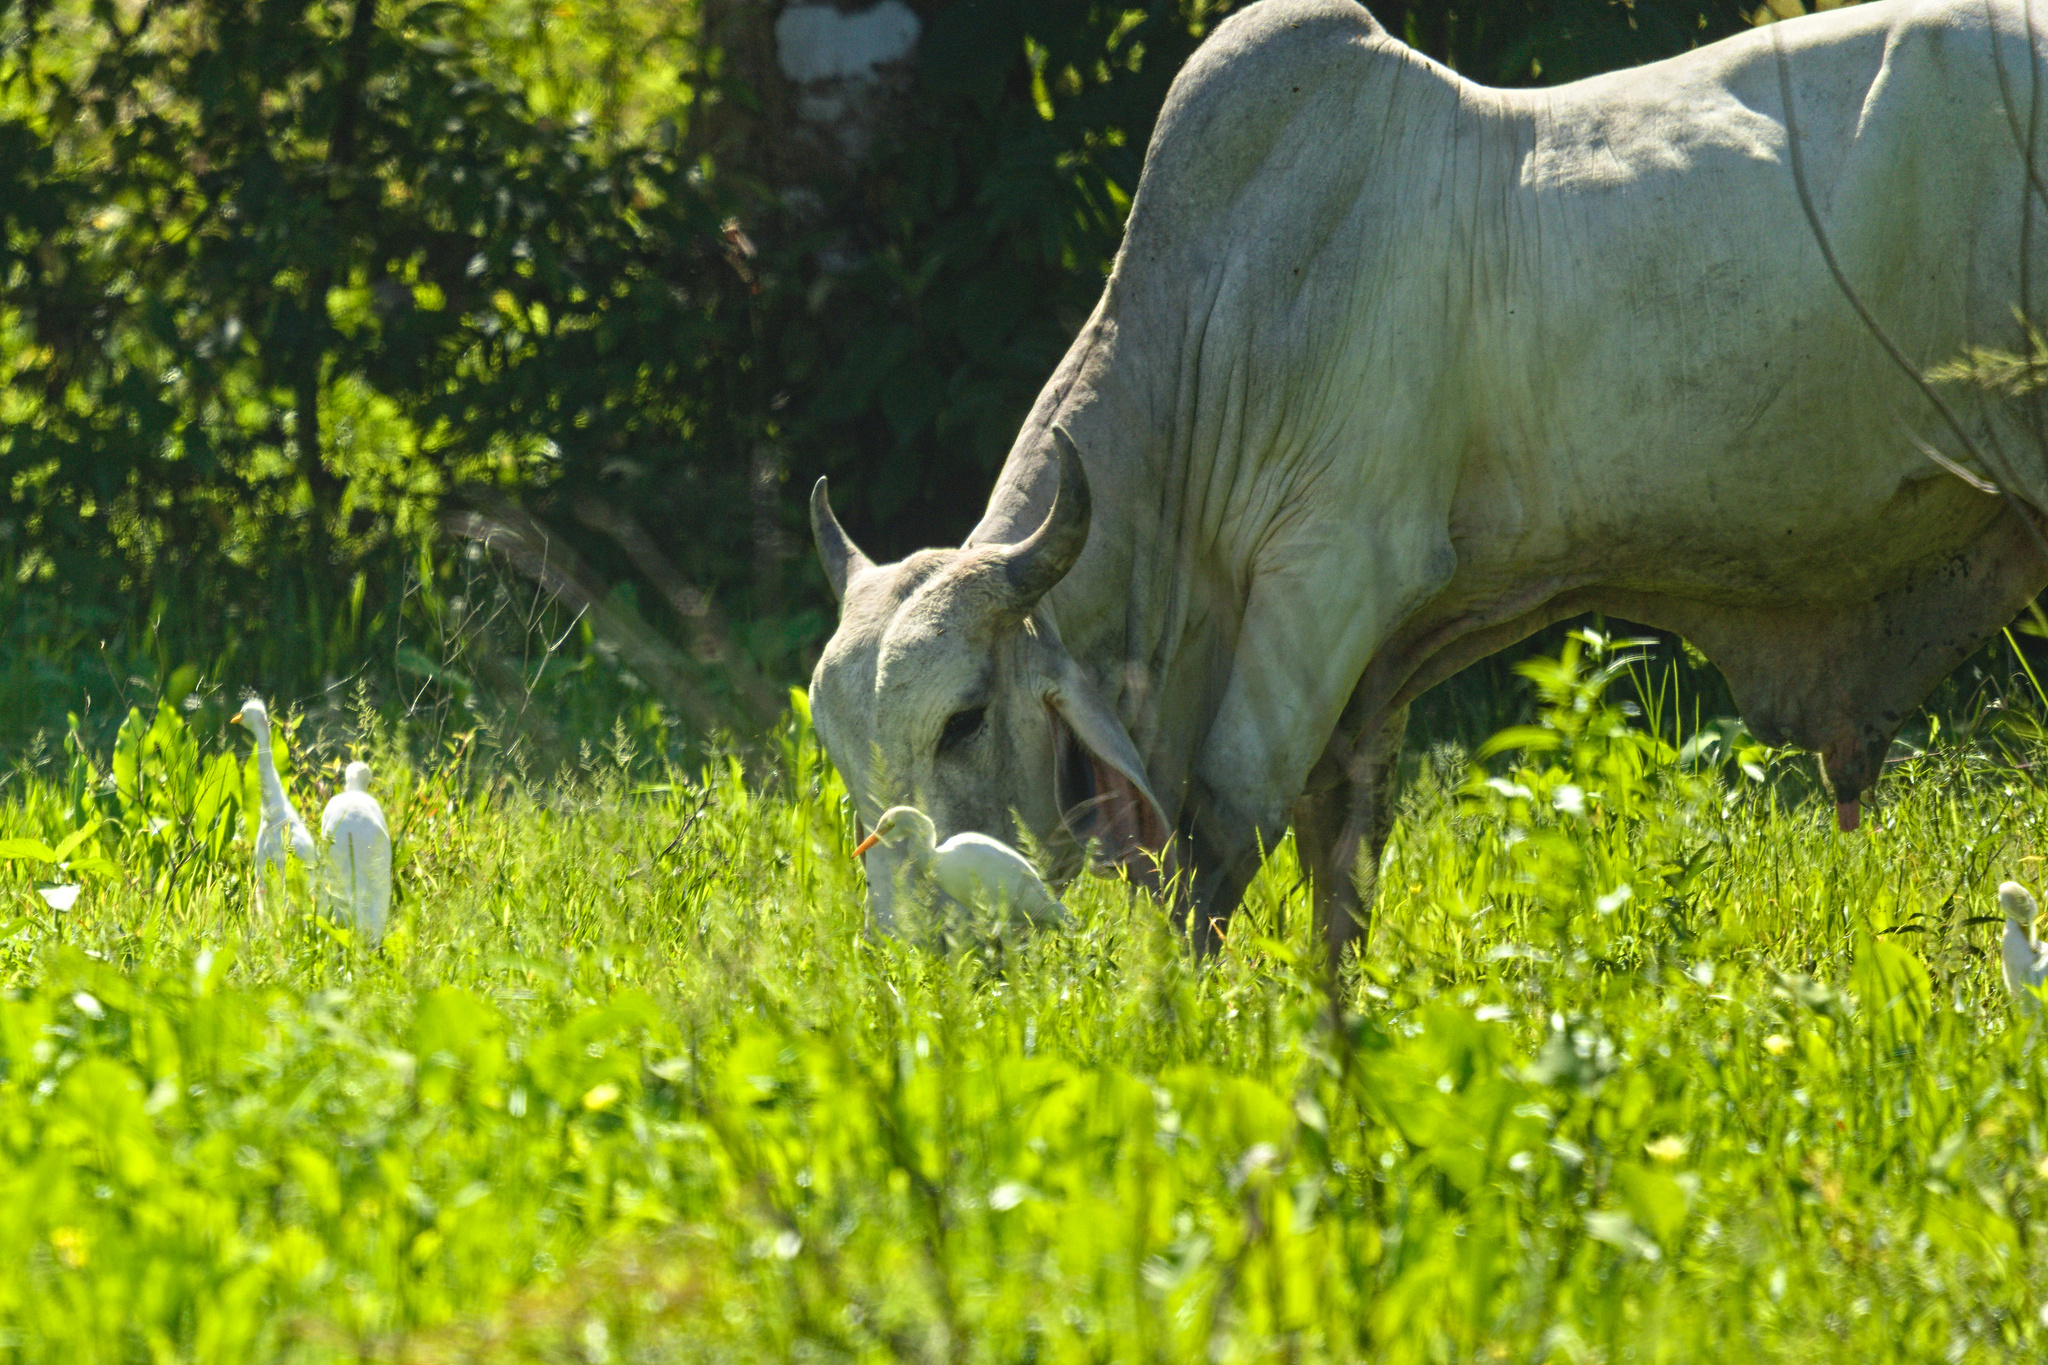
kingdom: Animalia
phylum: Chordata
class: Aves
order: Pelecaniformes
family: Ardeidae
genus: Bubulcus
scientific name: Bubulcus ibis
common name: Cattle egret
